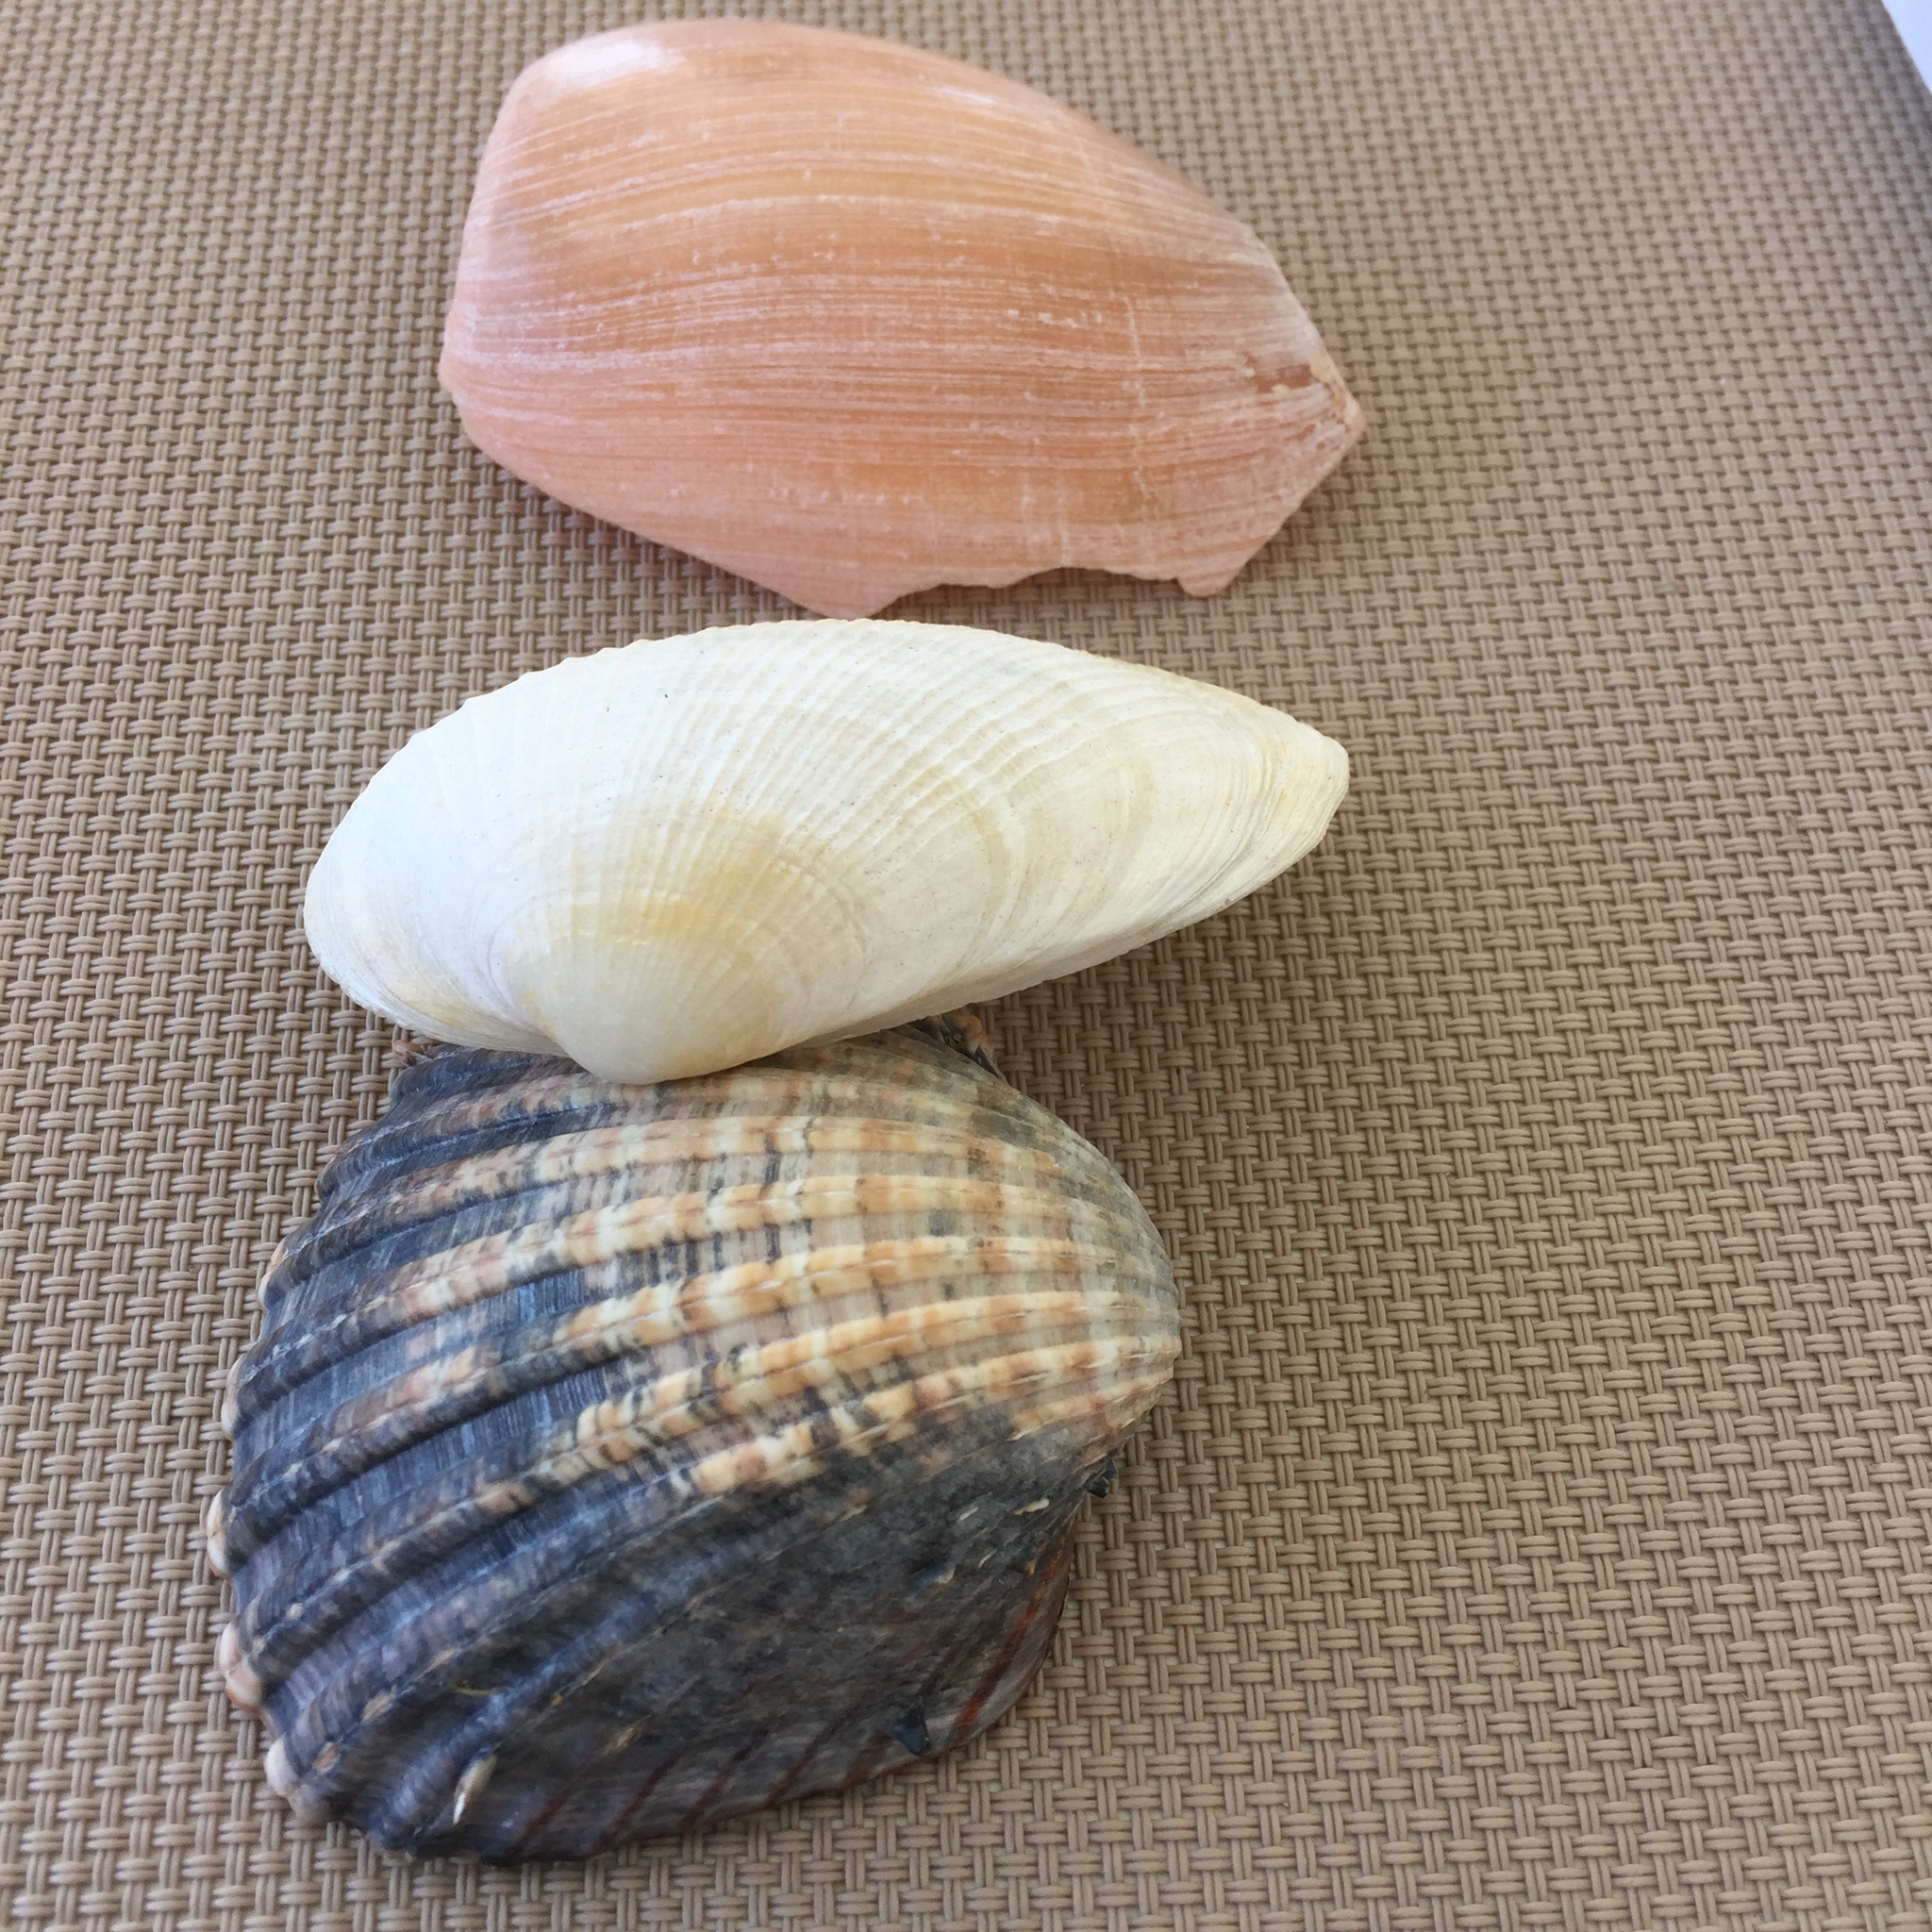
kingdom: Animalia
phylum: Mollusca
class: Bivalvia
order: Venerida
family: Mactridae
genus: Eastonia
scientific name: Eastonia rugosa
